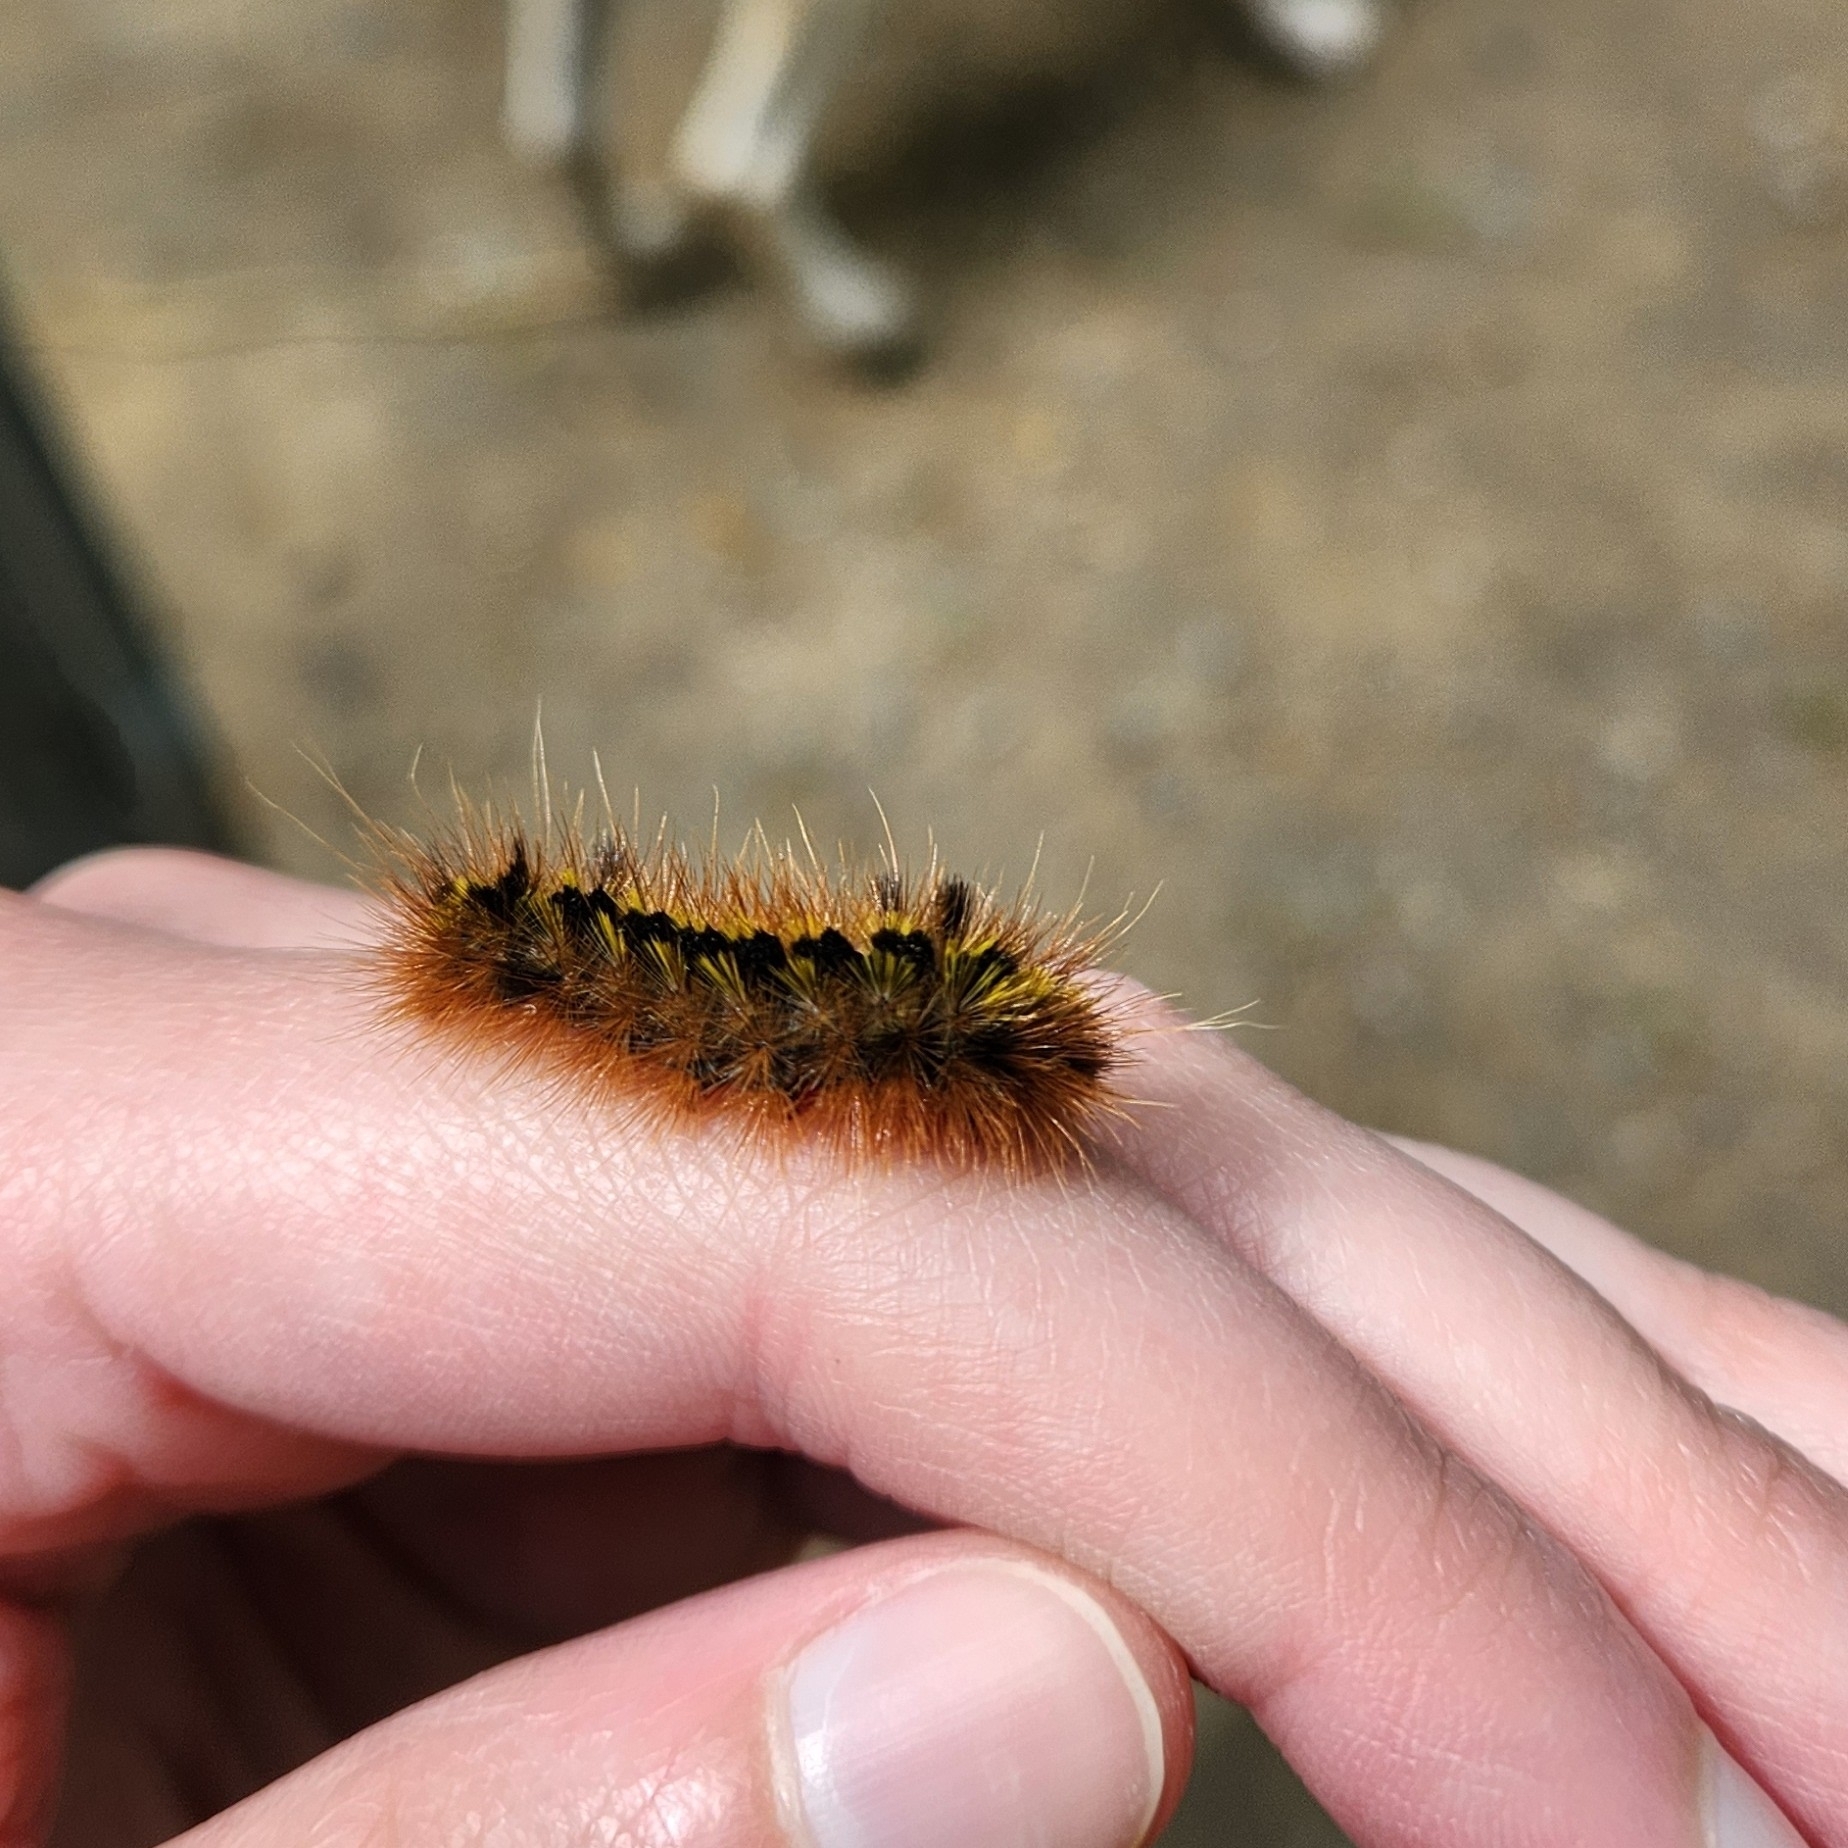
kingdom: Animalia
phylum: Arthropoda
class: Insecta
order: Lepidoptera
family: Erebidae
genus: Lophocampa
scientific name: Lophocampa argentata
